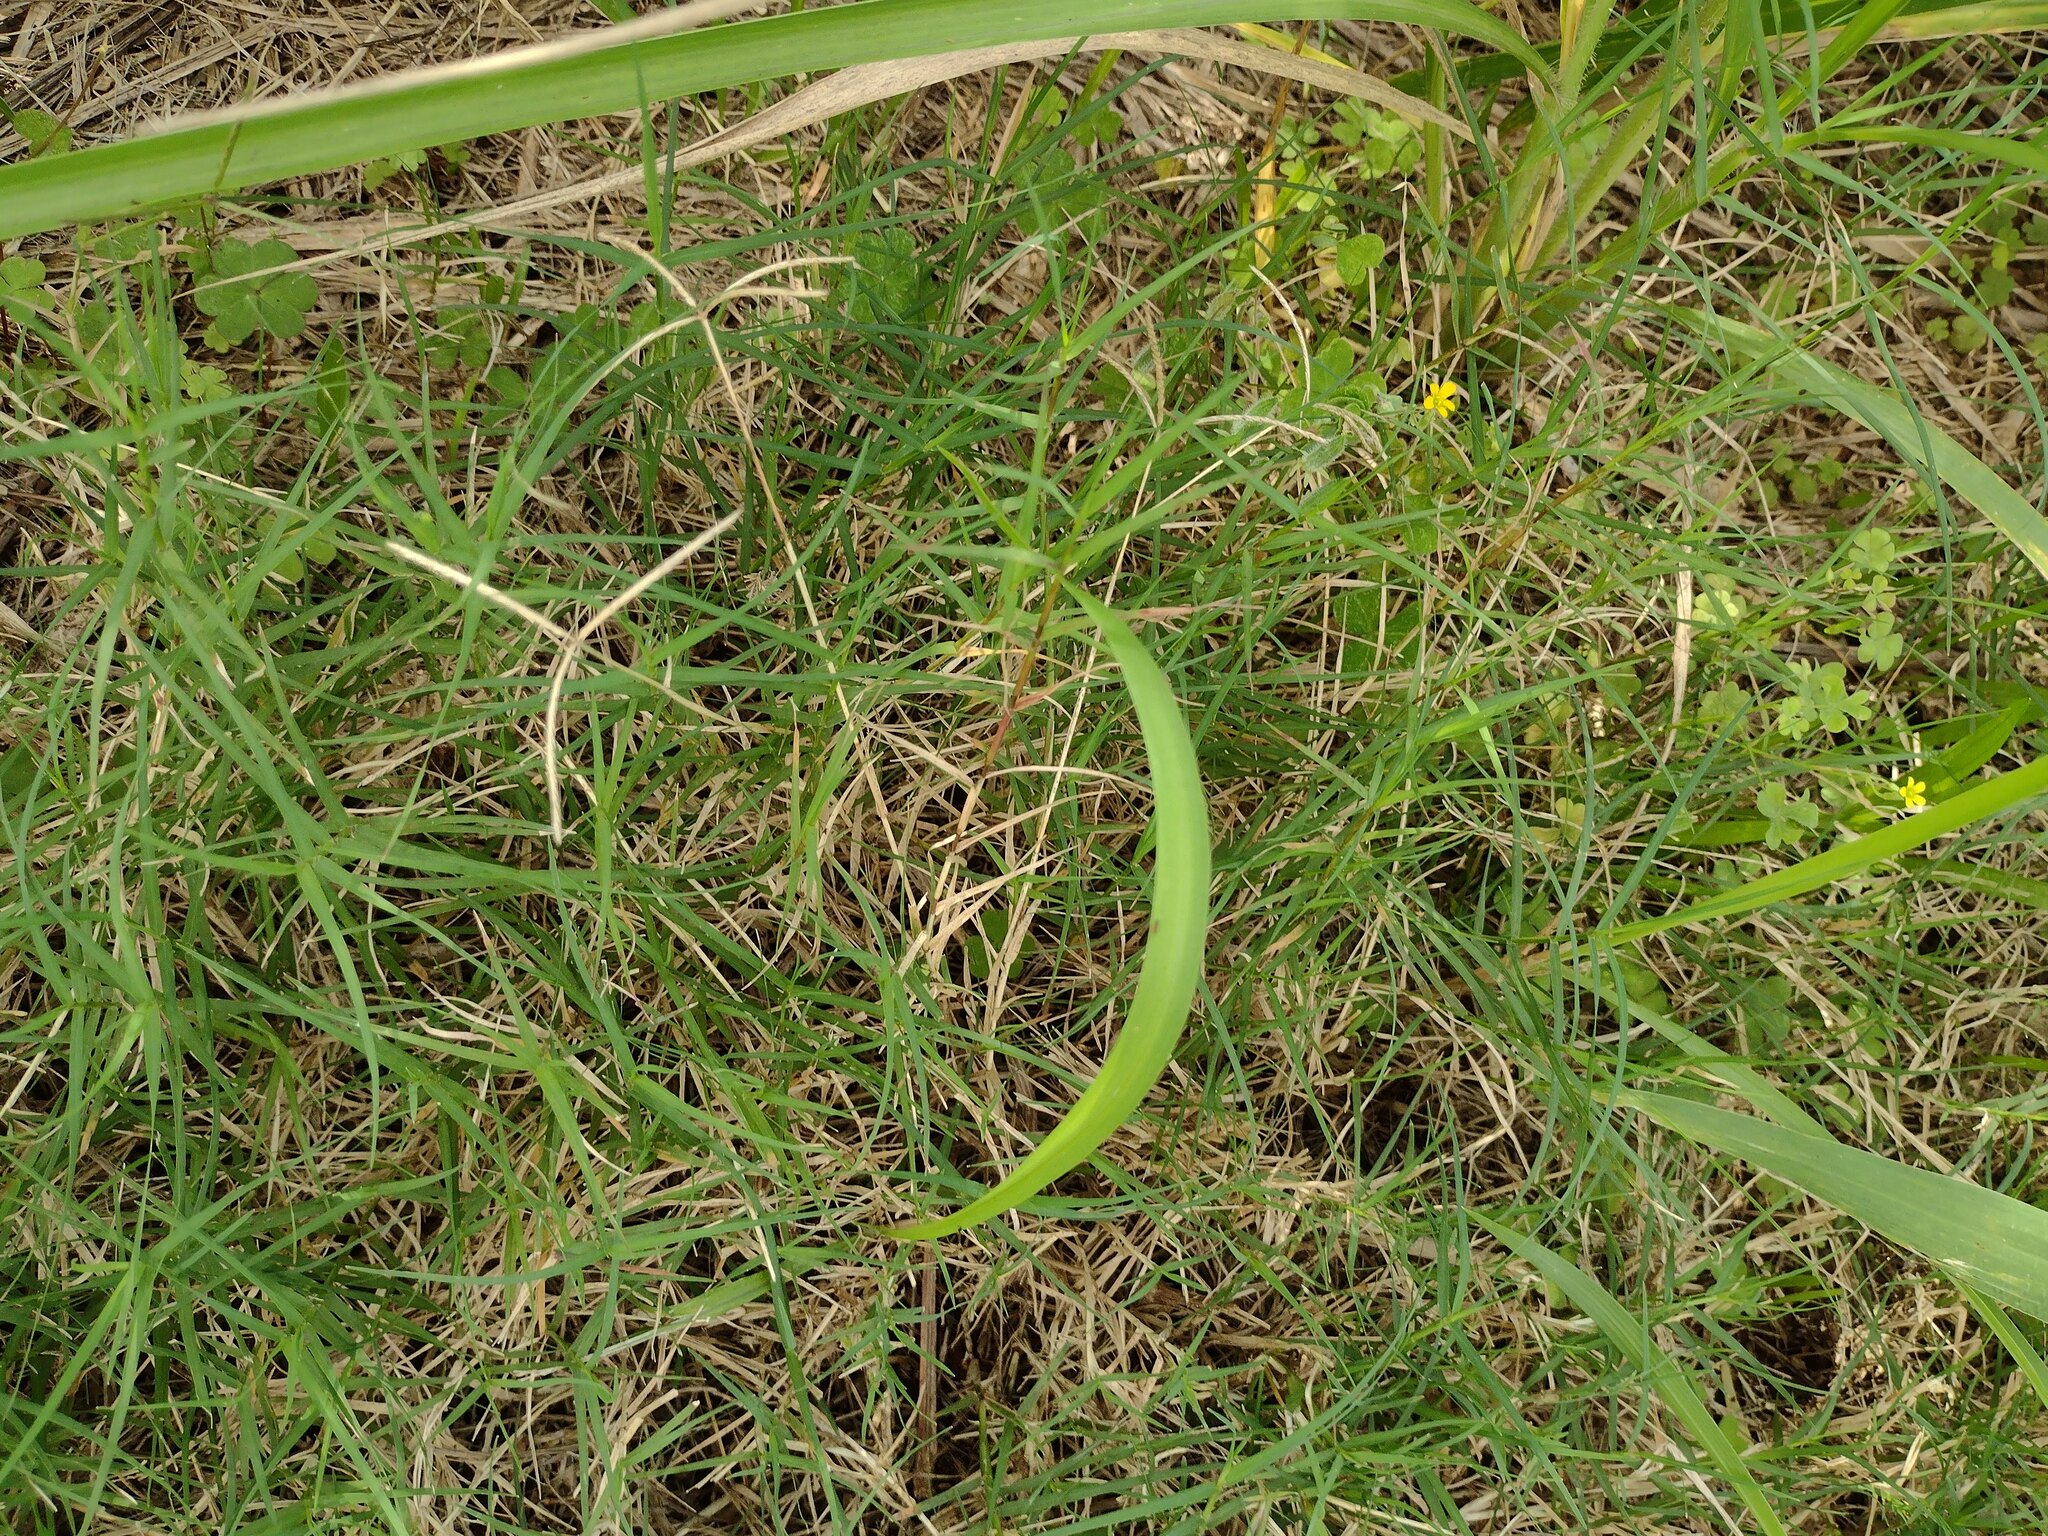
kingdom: Plantae
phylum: Tracheophyta
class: Liliopsida
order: Poales
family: Poaceae
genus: Cynodon
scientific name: Cynodon dactylon
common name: Bermuda grass
